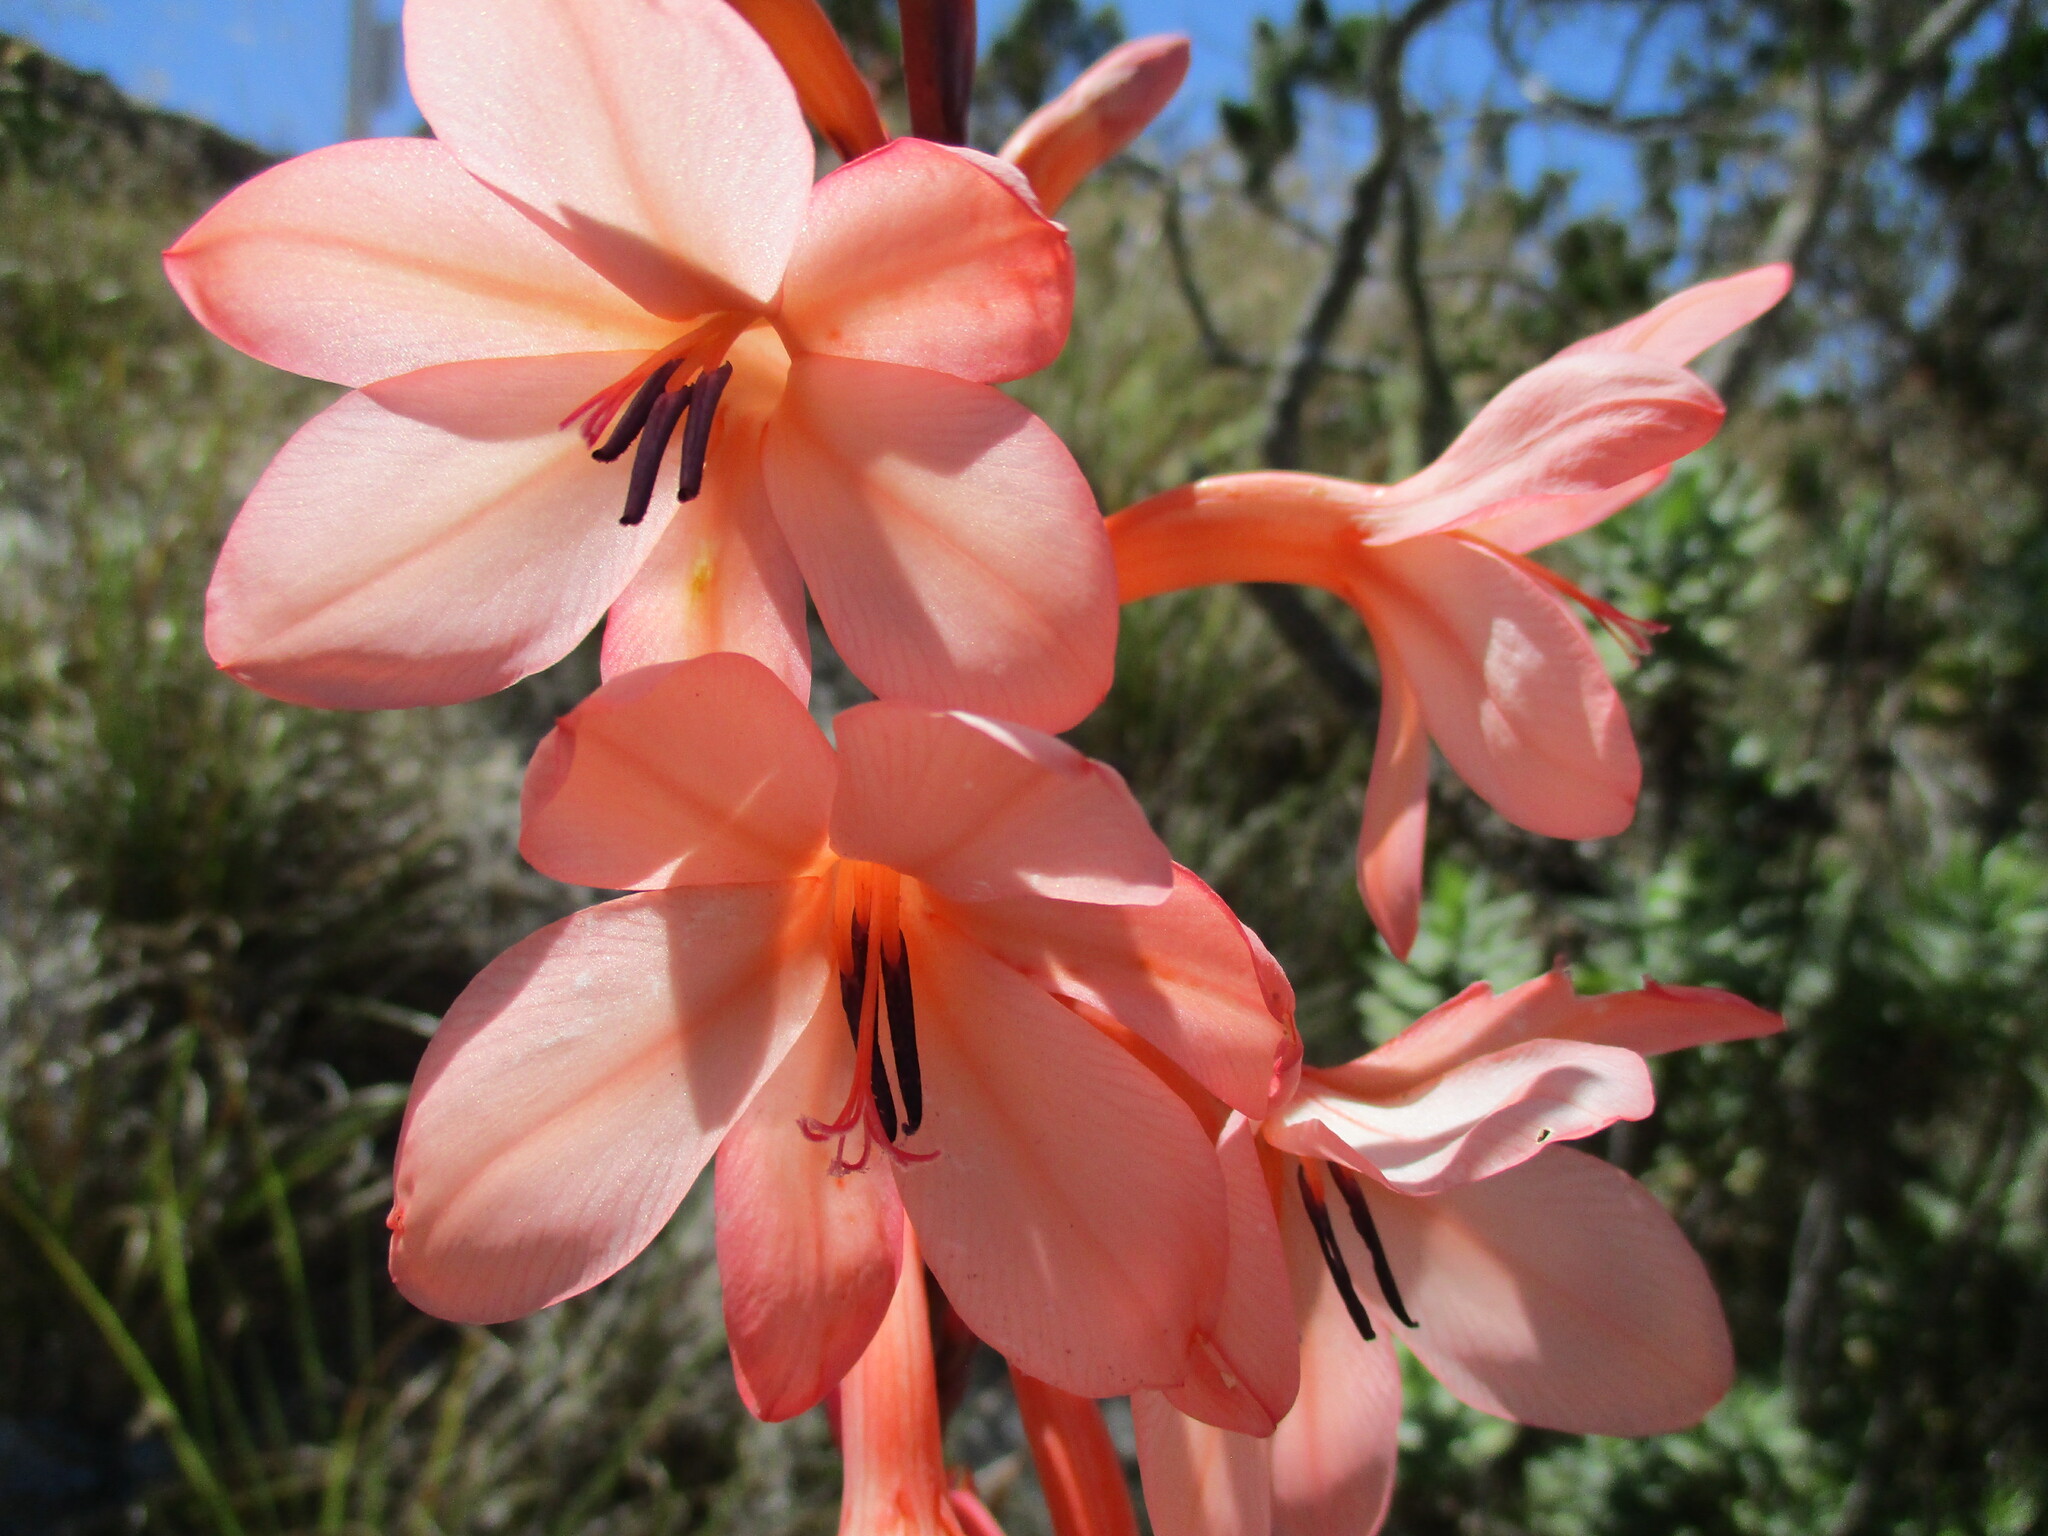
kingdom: Plantae
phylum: Tracheophyta
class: Liliopsida
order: Asparagales
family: Iridaceae
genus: Watsonia
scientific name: Watsonia tabularis
